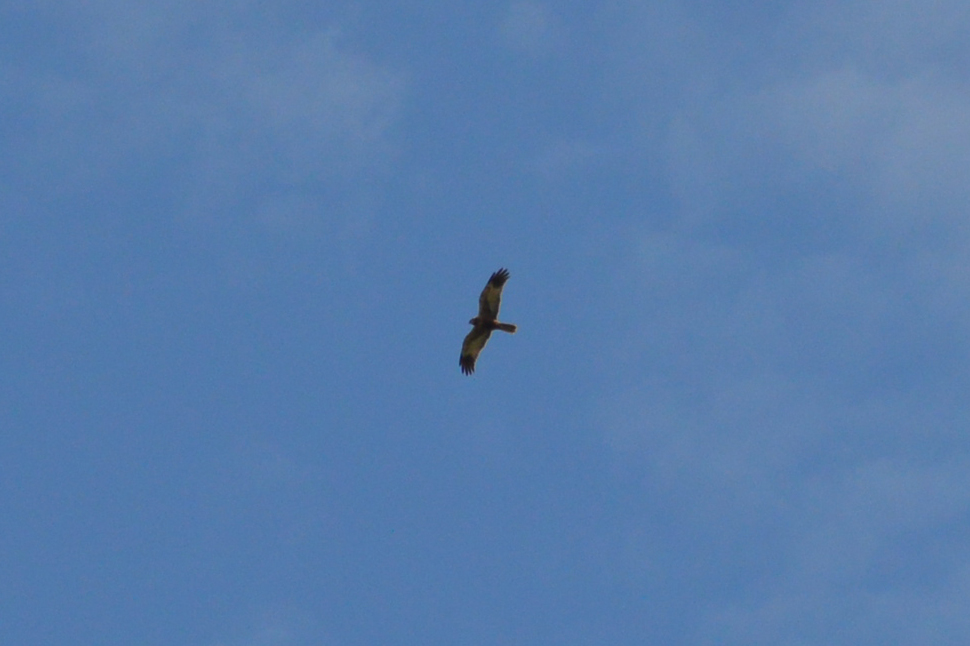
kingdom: Animalia
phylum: Chordata
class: Aves
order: Accipitriformes
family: Accipitridae
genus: Circus
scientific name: Circus aeruginosus
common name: Western marsh harrier
